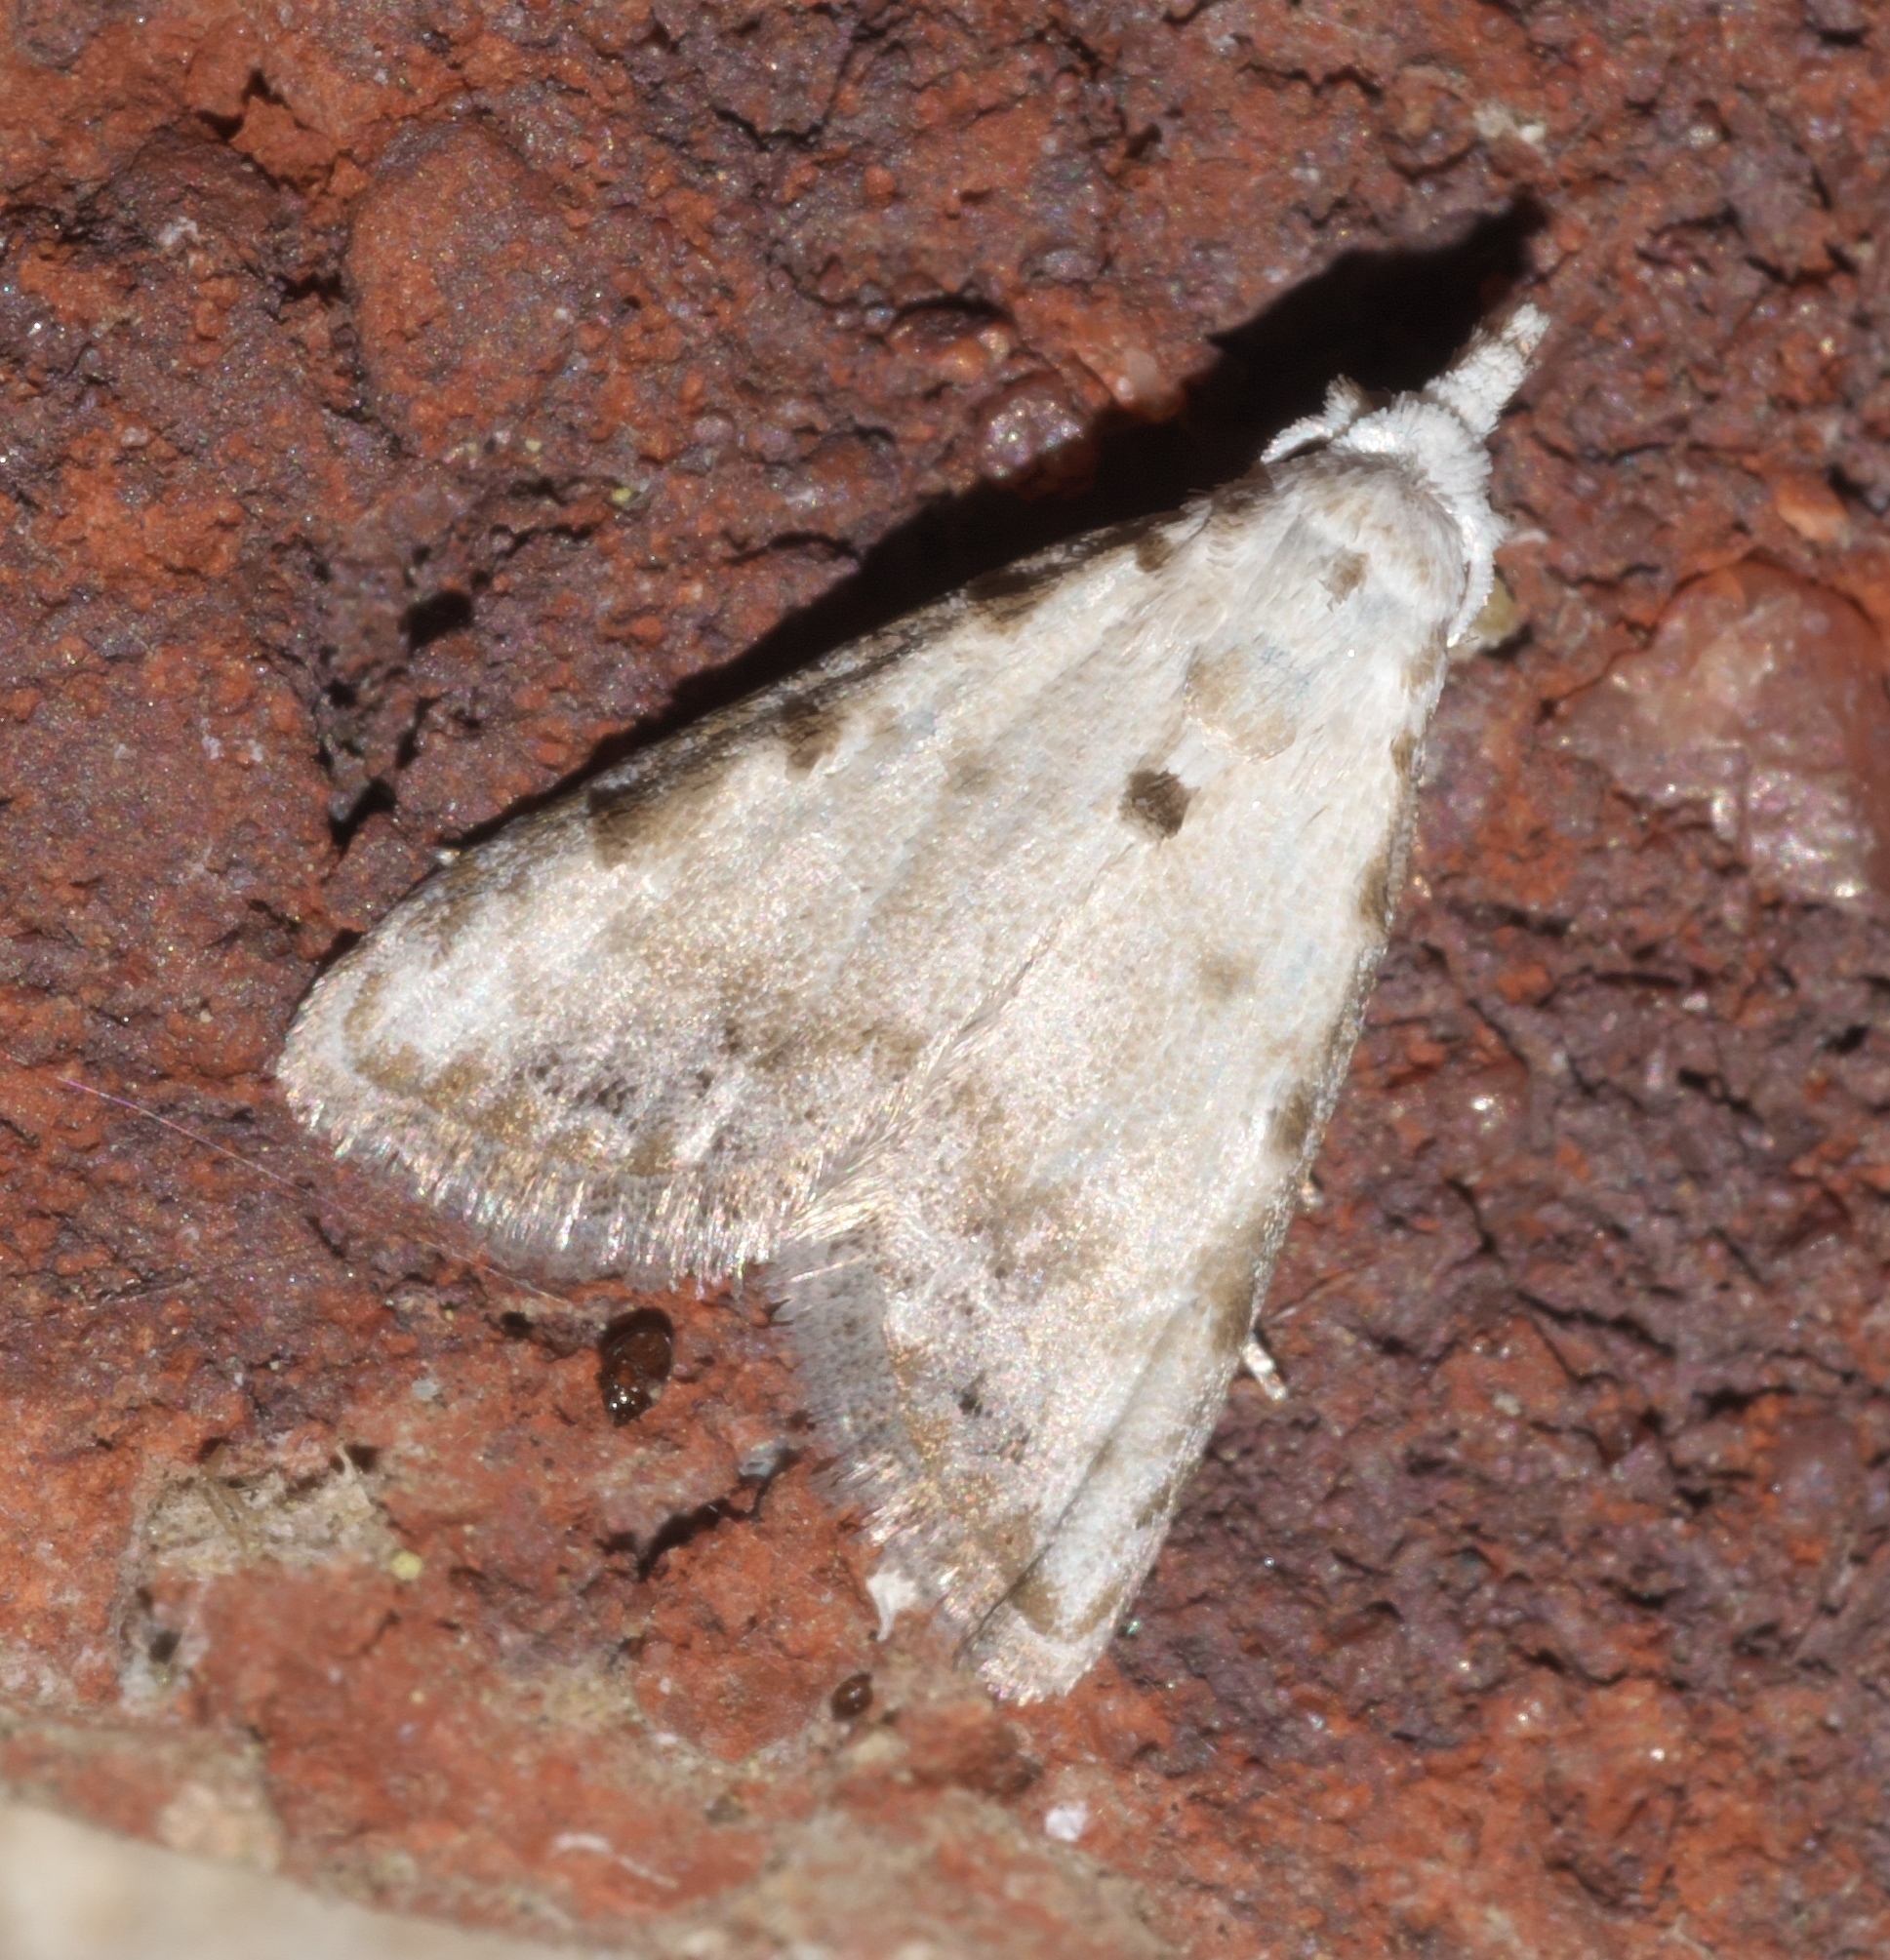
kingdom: Animalia
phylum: Arthropoda
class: Insecta
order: Lepidoptera
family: Nolidae
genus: Nola
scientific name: Nola cereella
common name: Sorghum webworm moth
